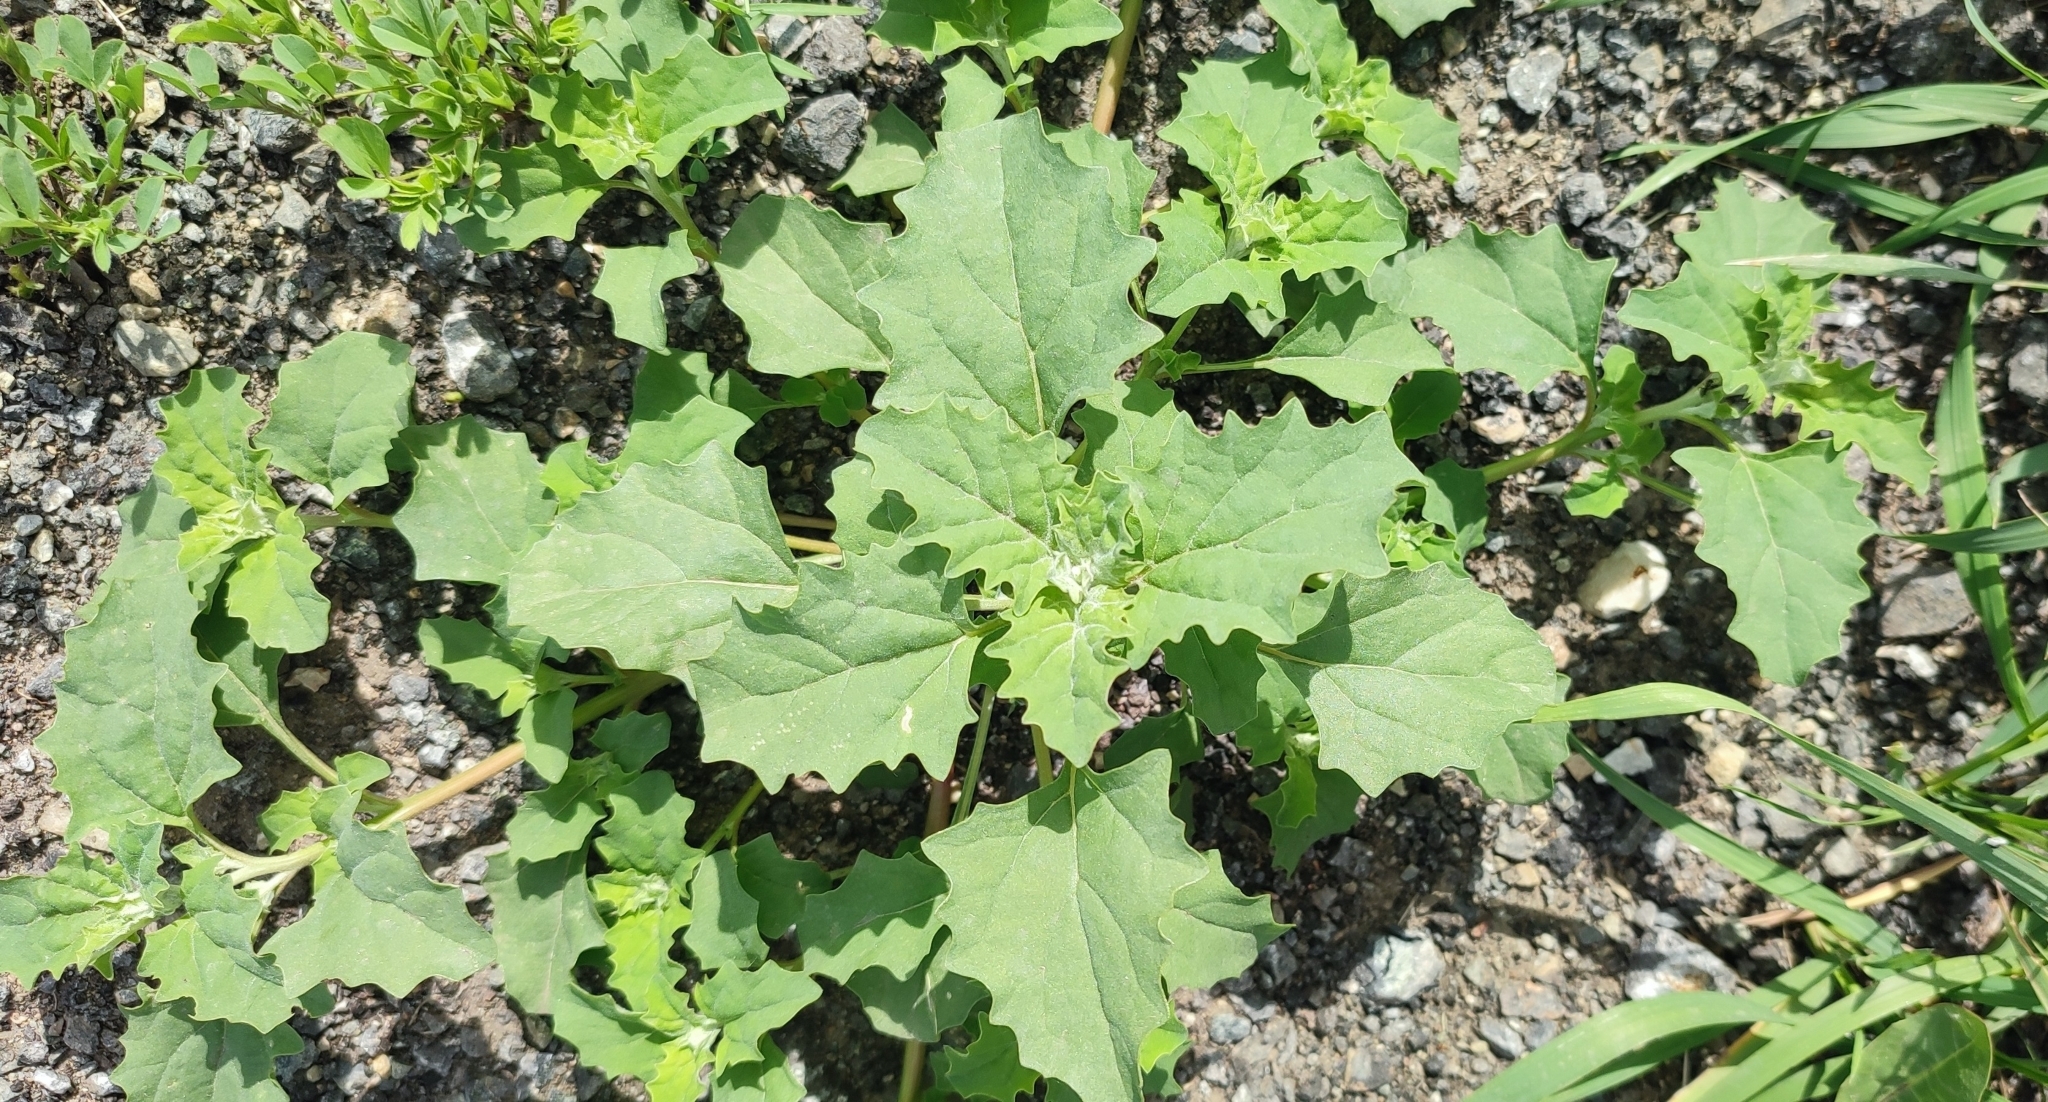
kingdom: Plantae
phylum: Tracheophyta
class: Magnoliopsida
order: Caryophyllales
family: Amaranthaceae
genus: Atriplex
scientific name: Atriplex tatarica
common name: Tatarian orache
